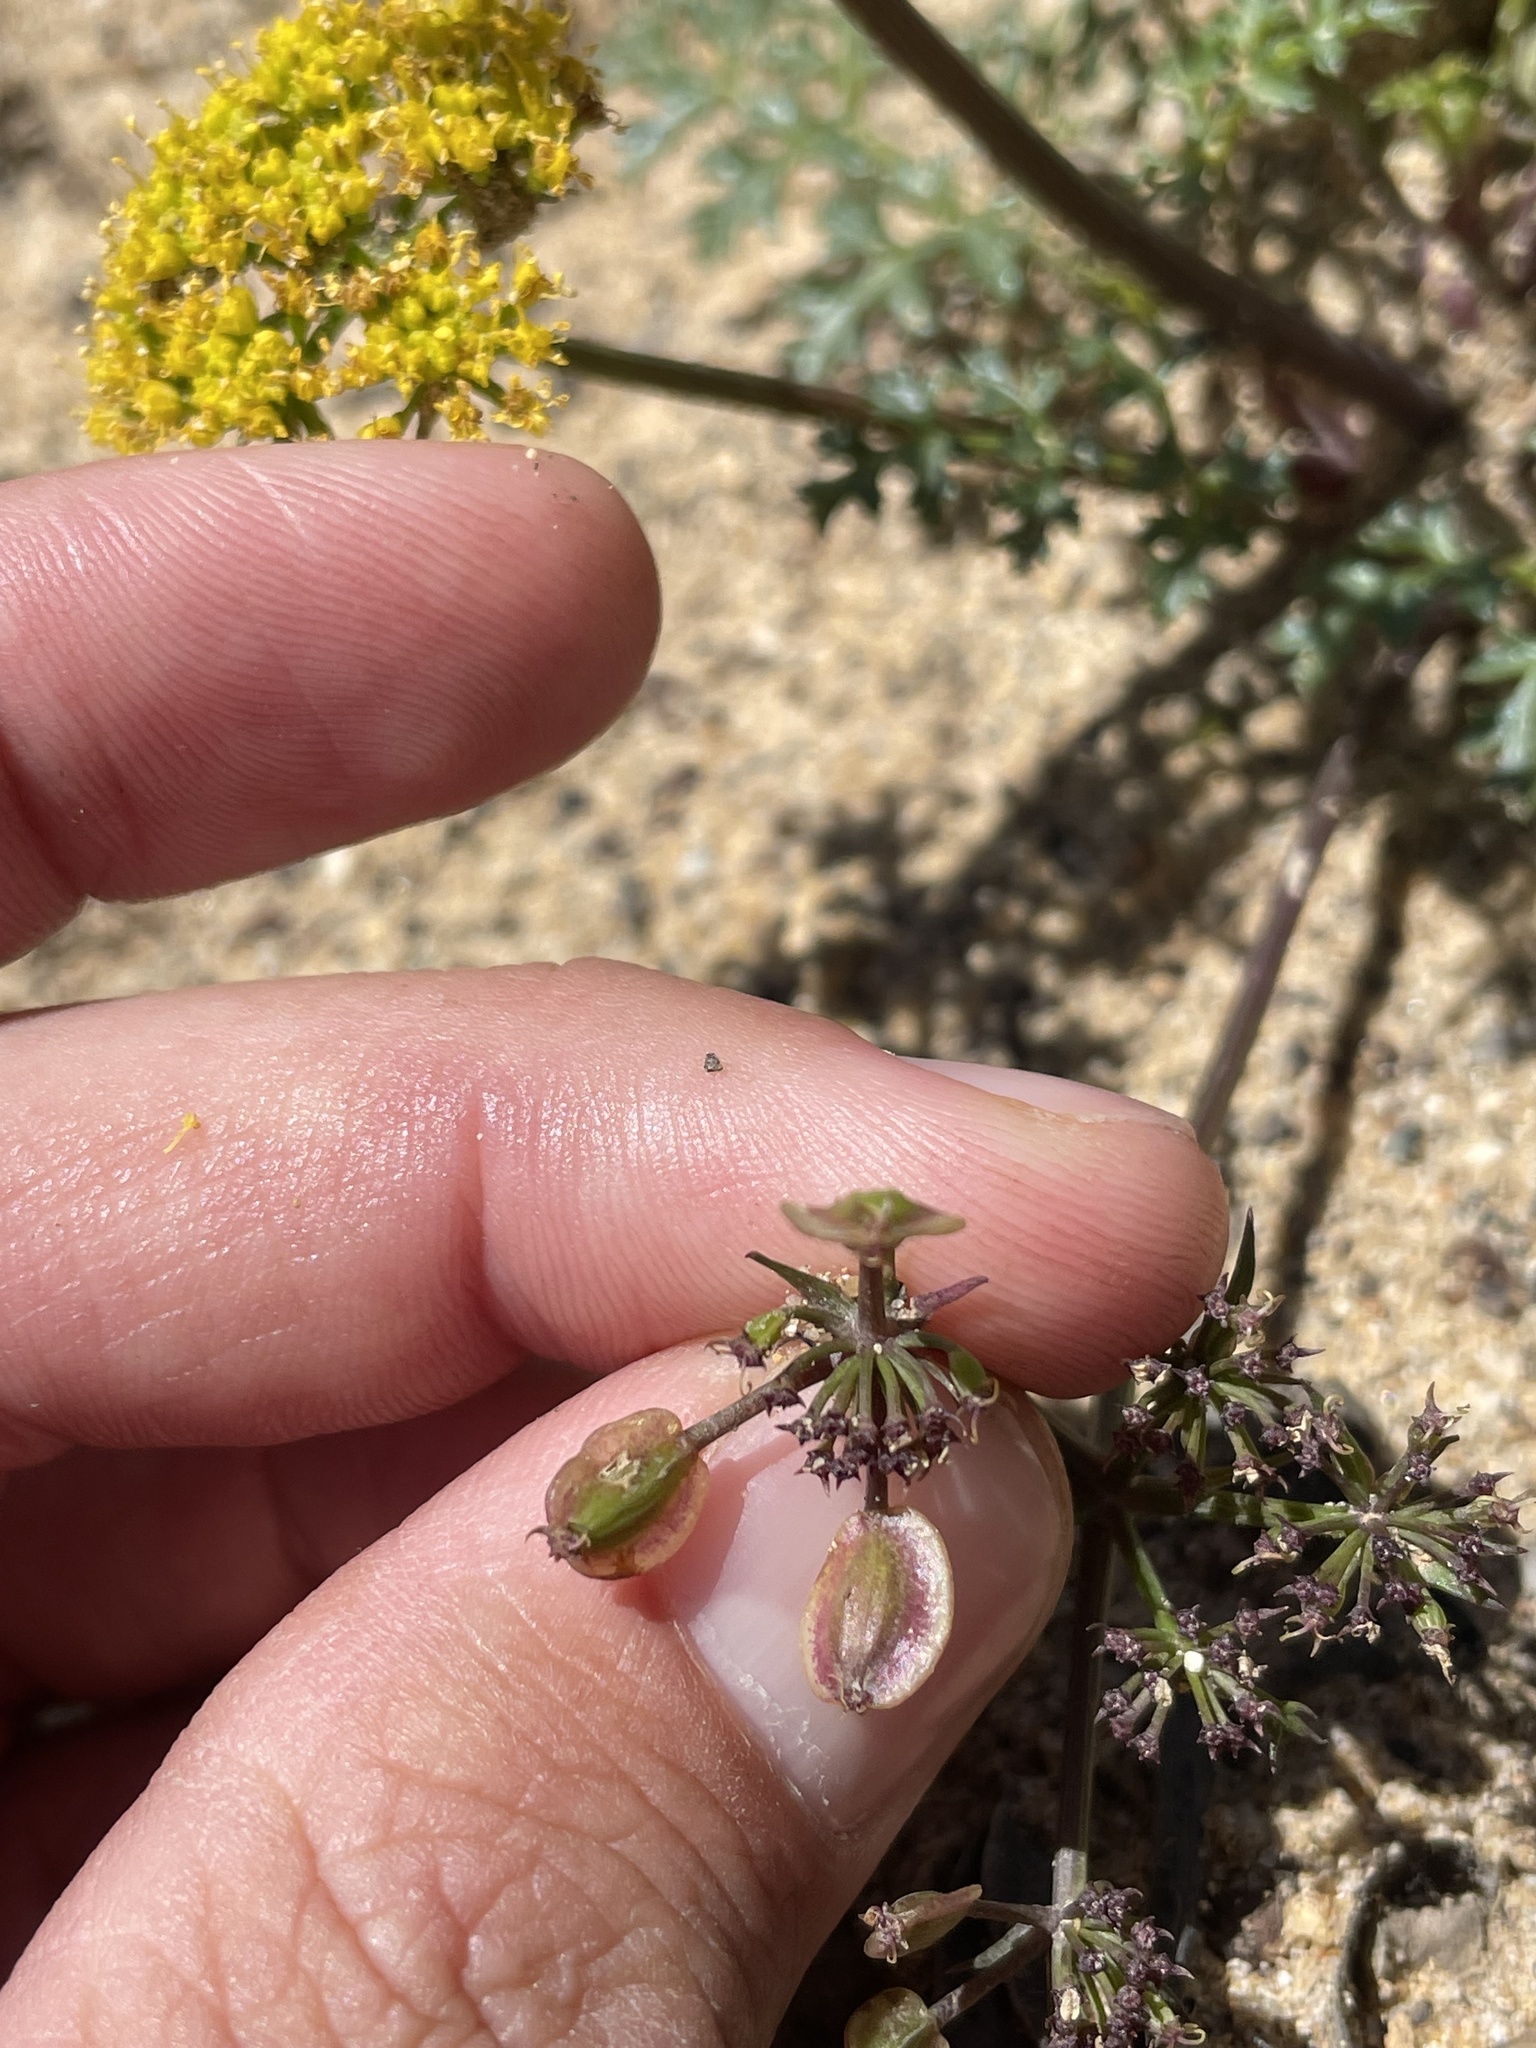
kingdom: Plantae
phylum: Tracheophyta
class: Magnoliopsida
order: Apiales
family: Apiaceae
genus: Lomatium
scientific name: Lomatium parvifolium
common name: Small-leaf lomatium
